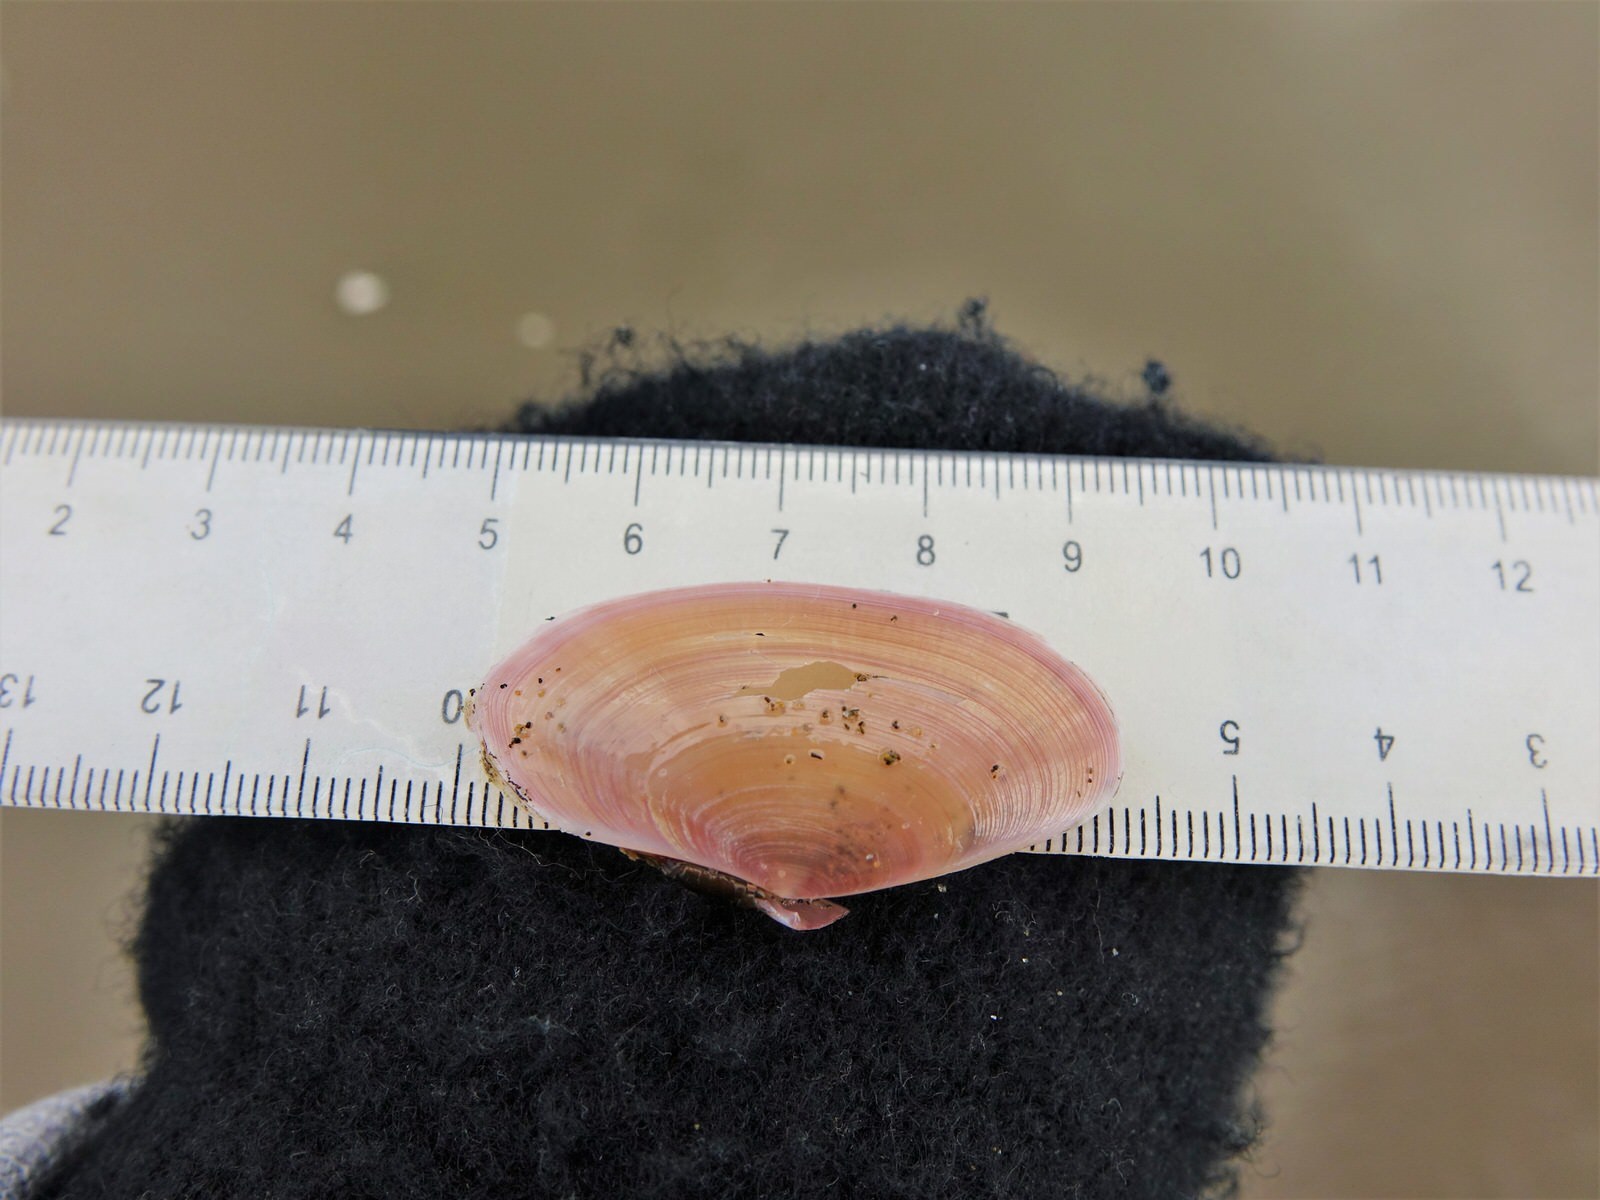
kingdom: Animalia
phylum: Mollusca
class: Bivalvia
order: Cardiida
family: Psammobiidae
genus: Gari
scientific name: Gari lineolata
